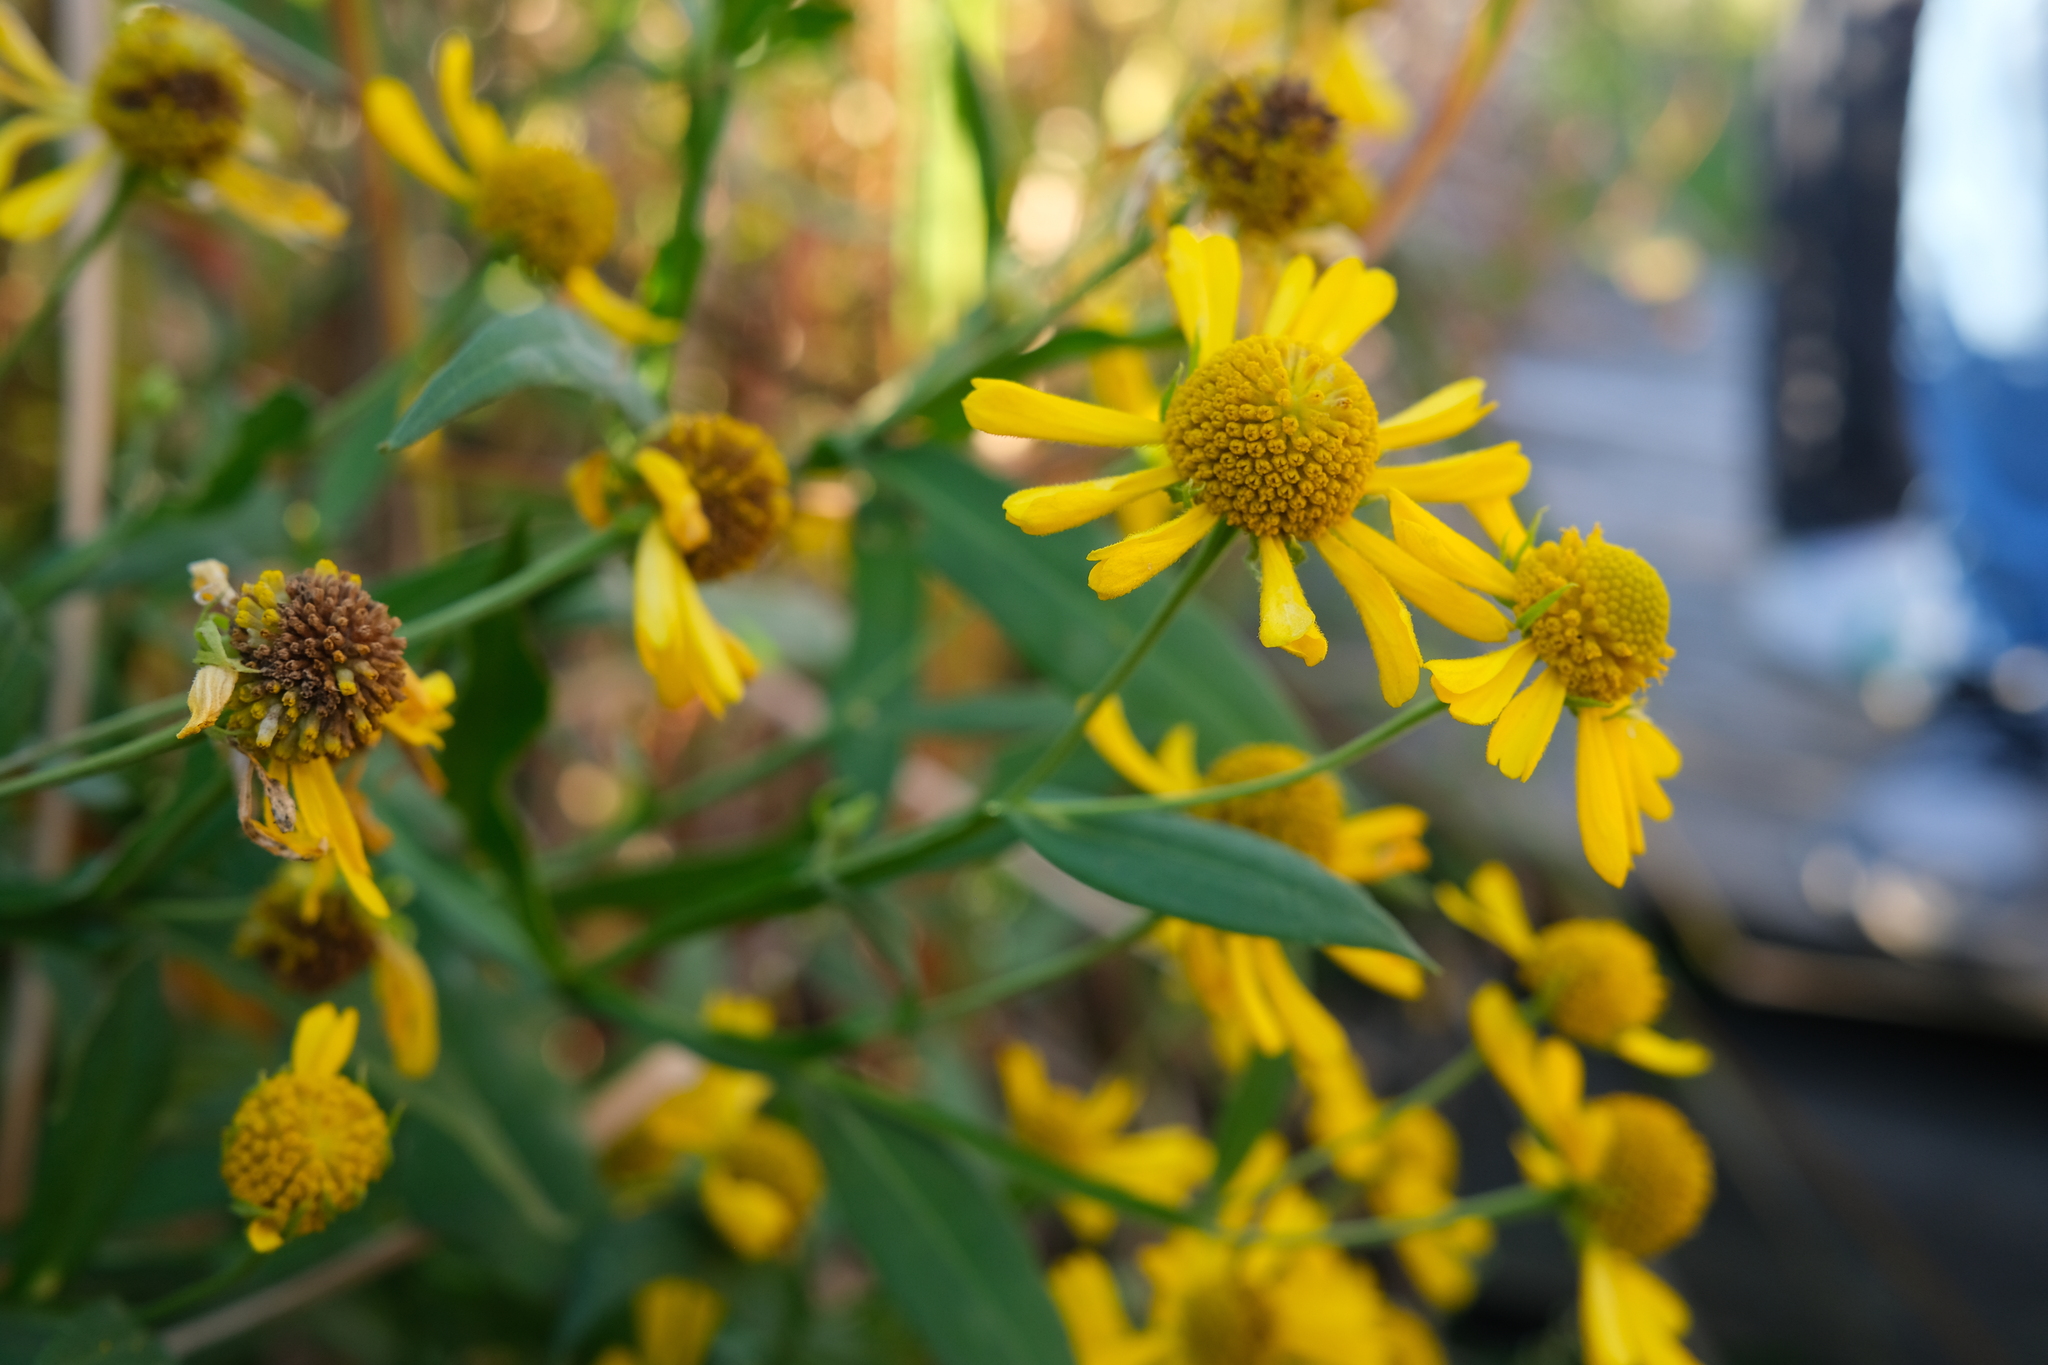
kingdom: Plantae
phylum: Tracheophyta
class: Magnoliopsida
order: Asterales
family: Asteraceae
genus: Helenium
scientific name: Helenium autumnale
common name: Sneezeweed
